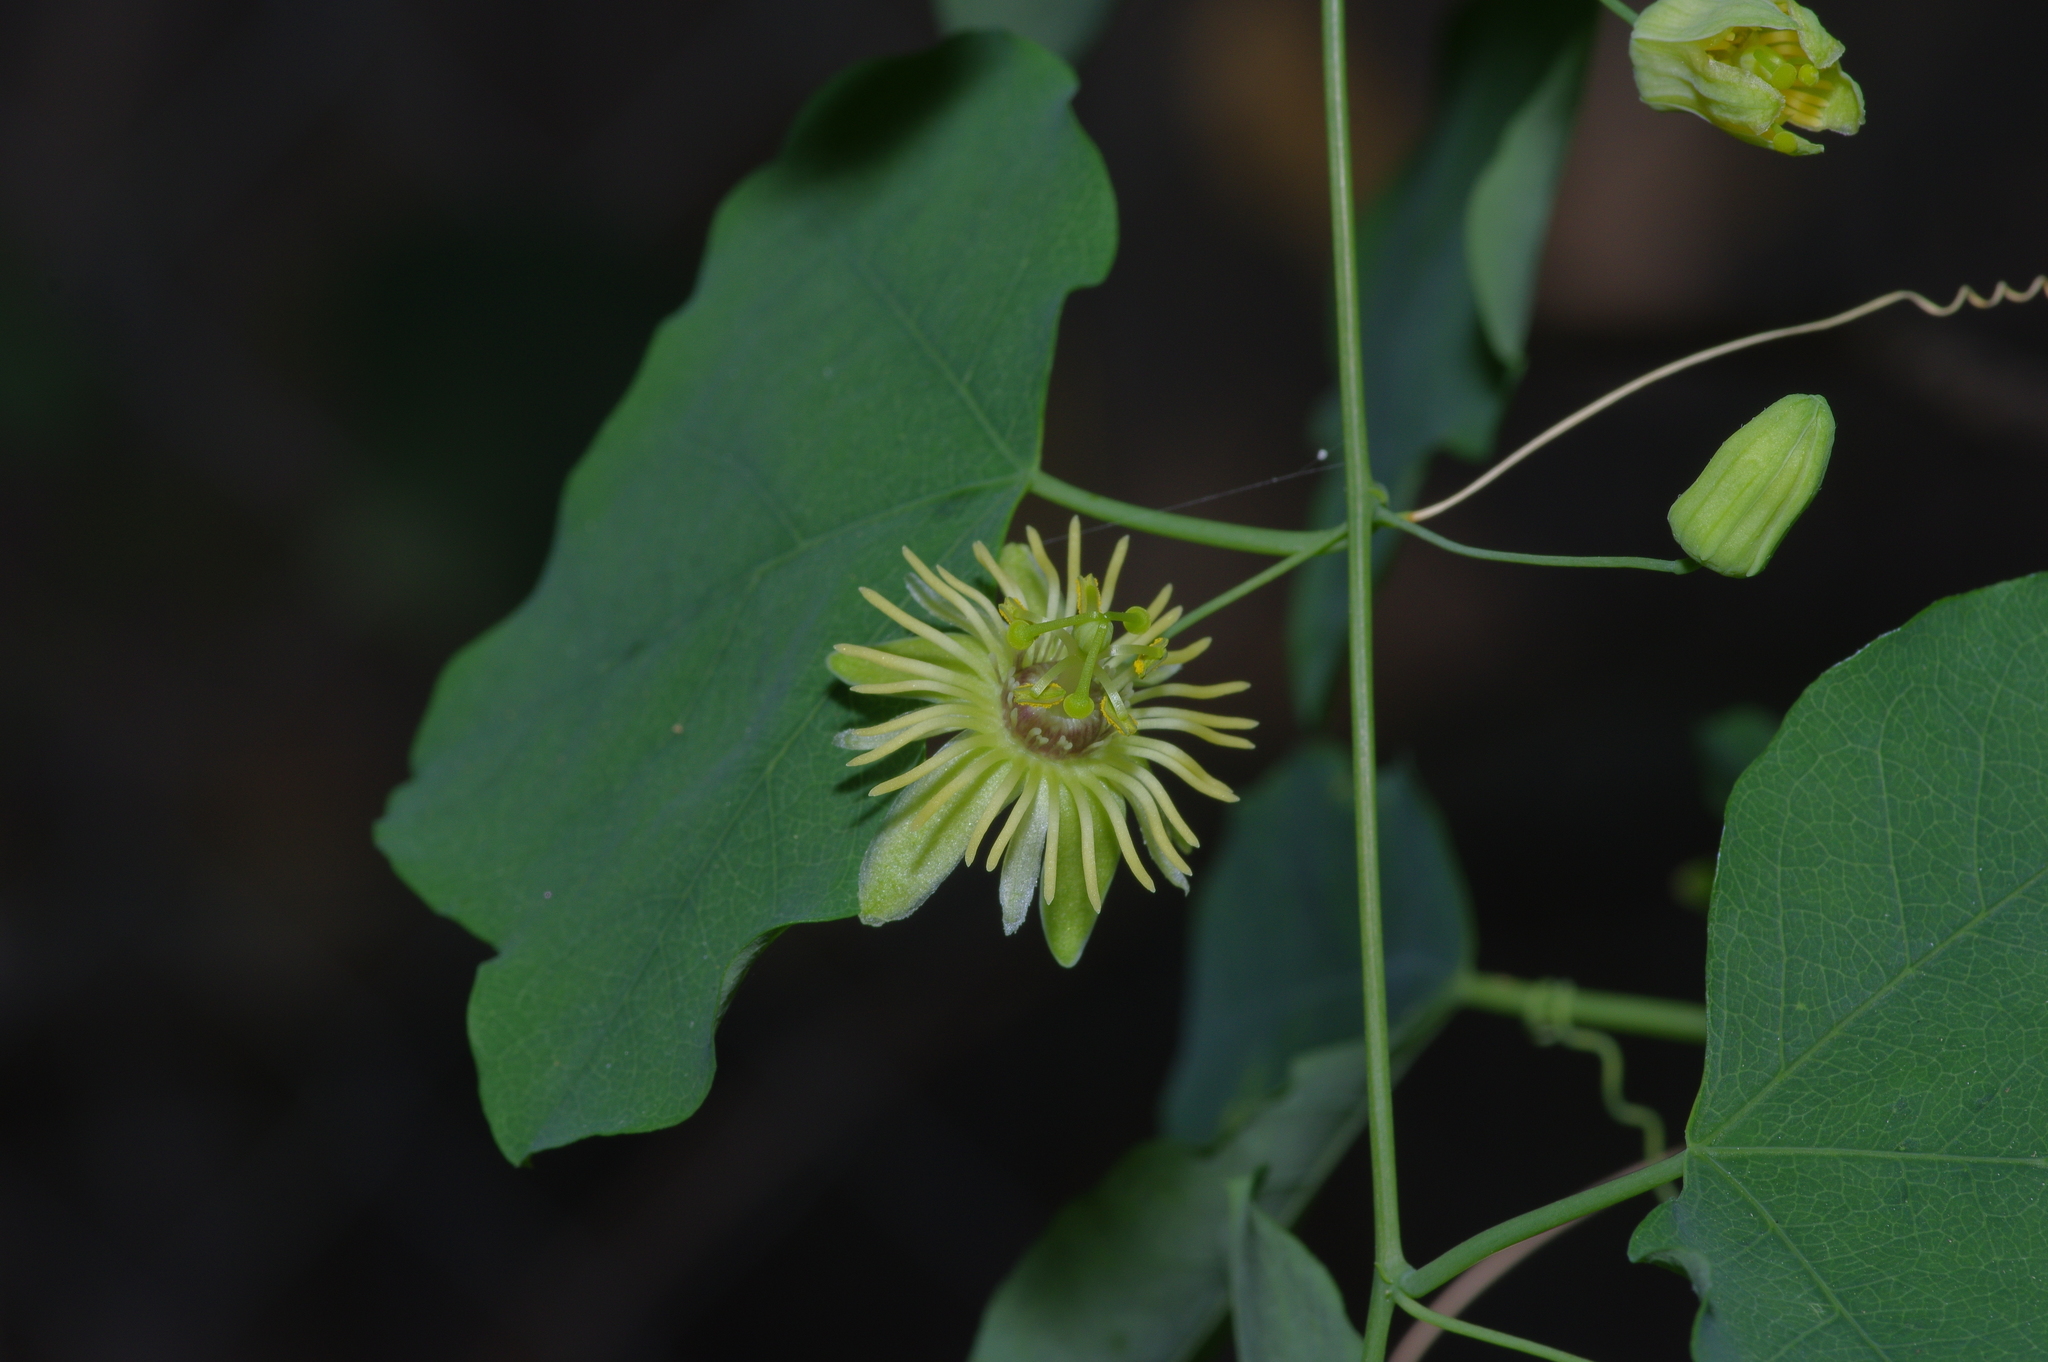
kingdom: Plantae
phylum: Tracheophyta
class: Magnoliopsida
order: Malpighiales
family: Passifloraceae
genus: Passiflora
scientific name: Passiflora lutea
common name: Yellow passionflower
